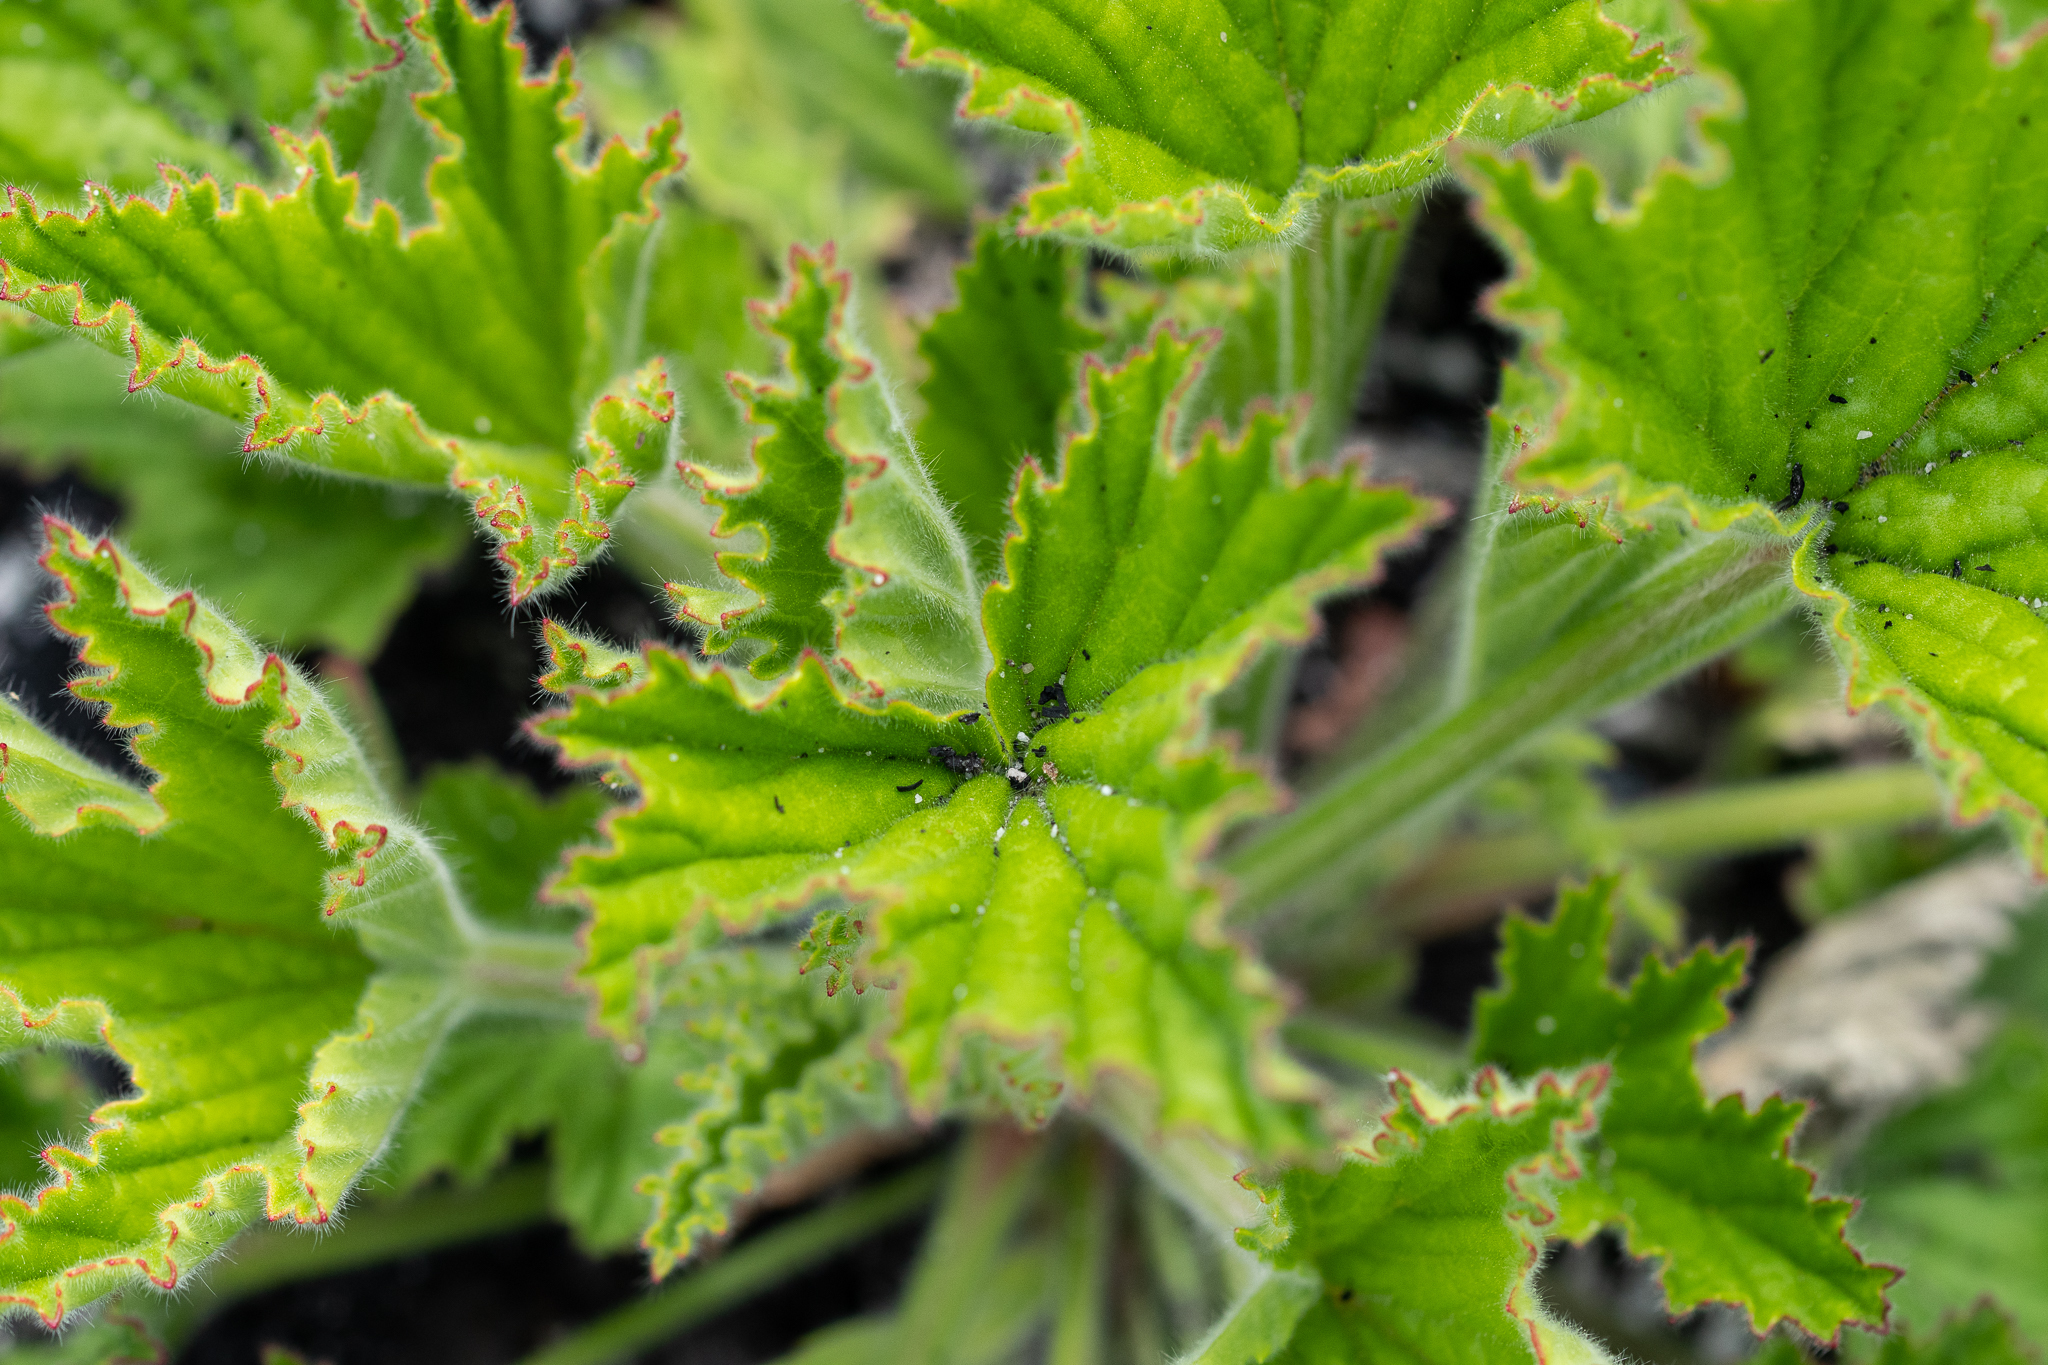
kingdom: Plantae
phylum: Tracheophyta
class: Magnoliopsida
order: Geraniales
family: Geraniaceae
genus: Pelargonium
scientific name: Pelargonium cucullatum
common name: Tree pelargonium
